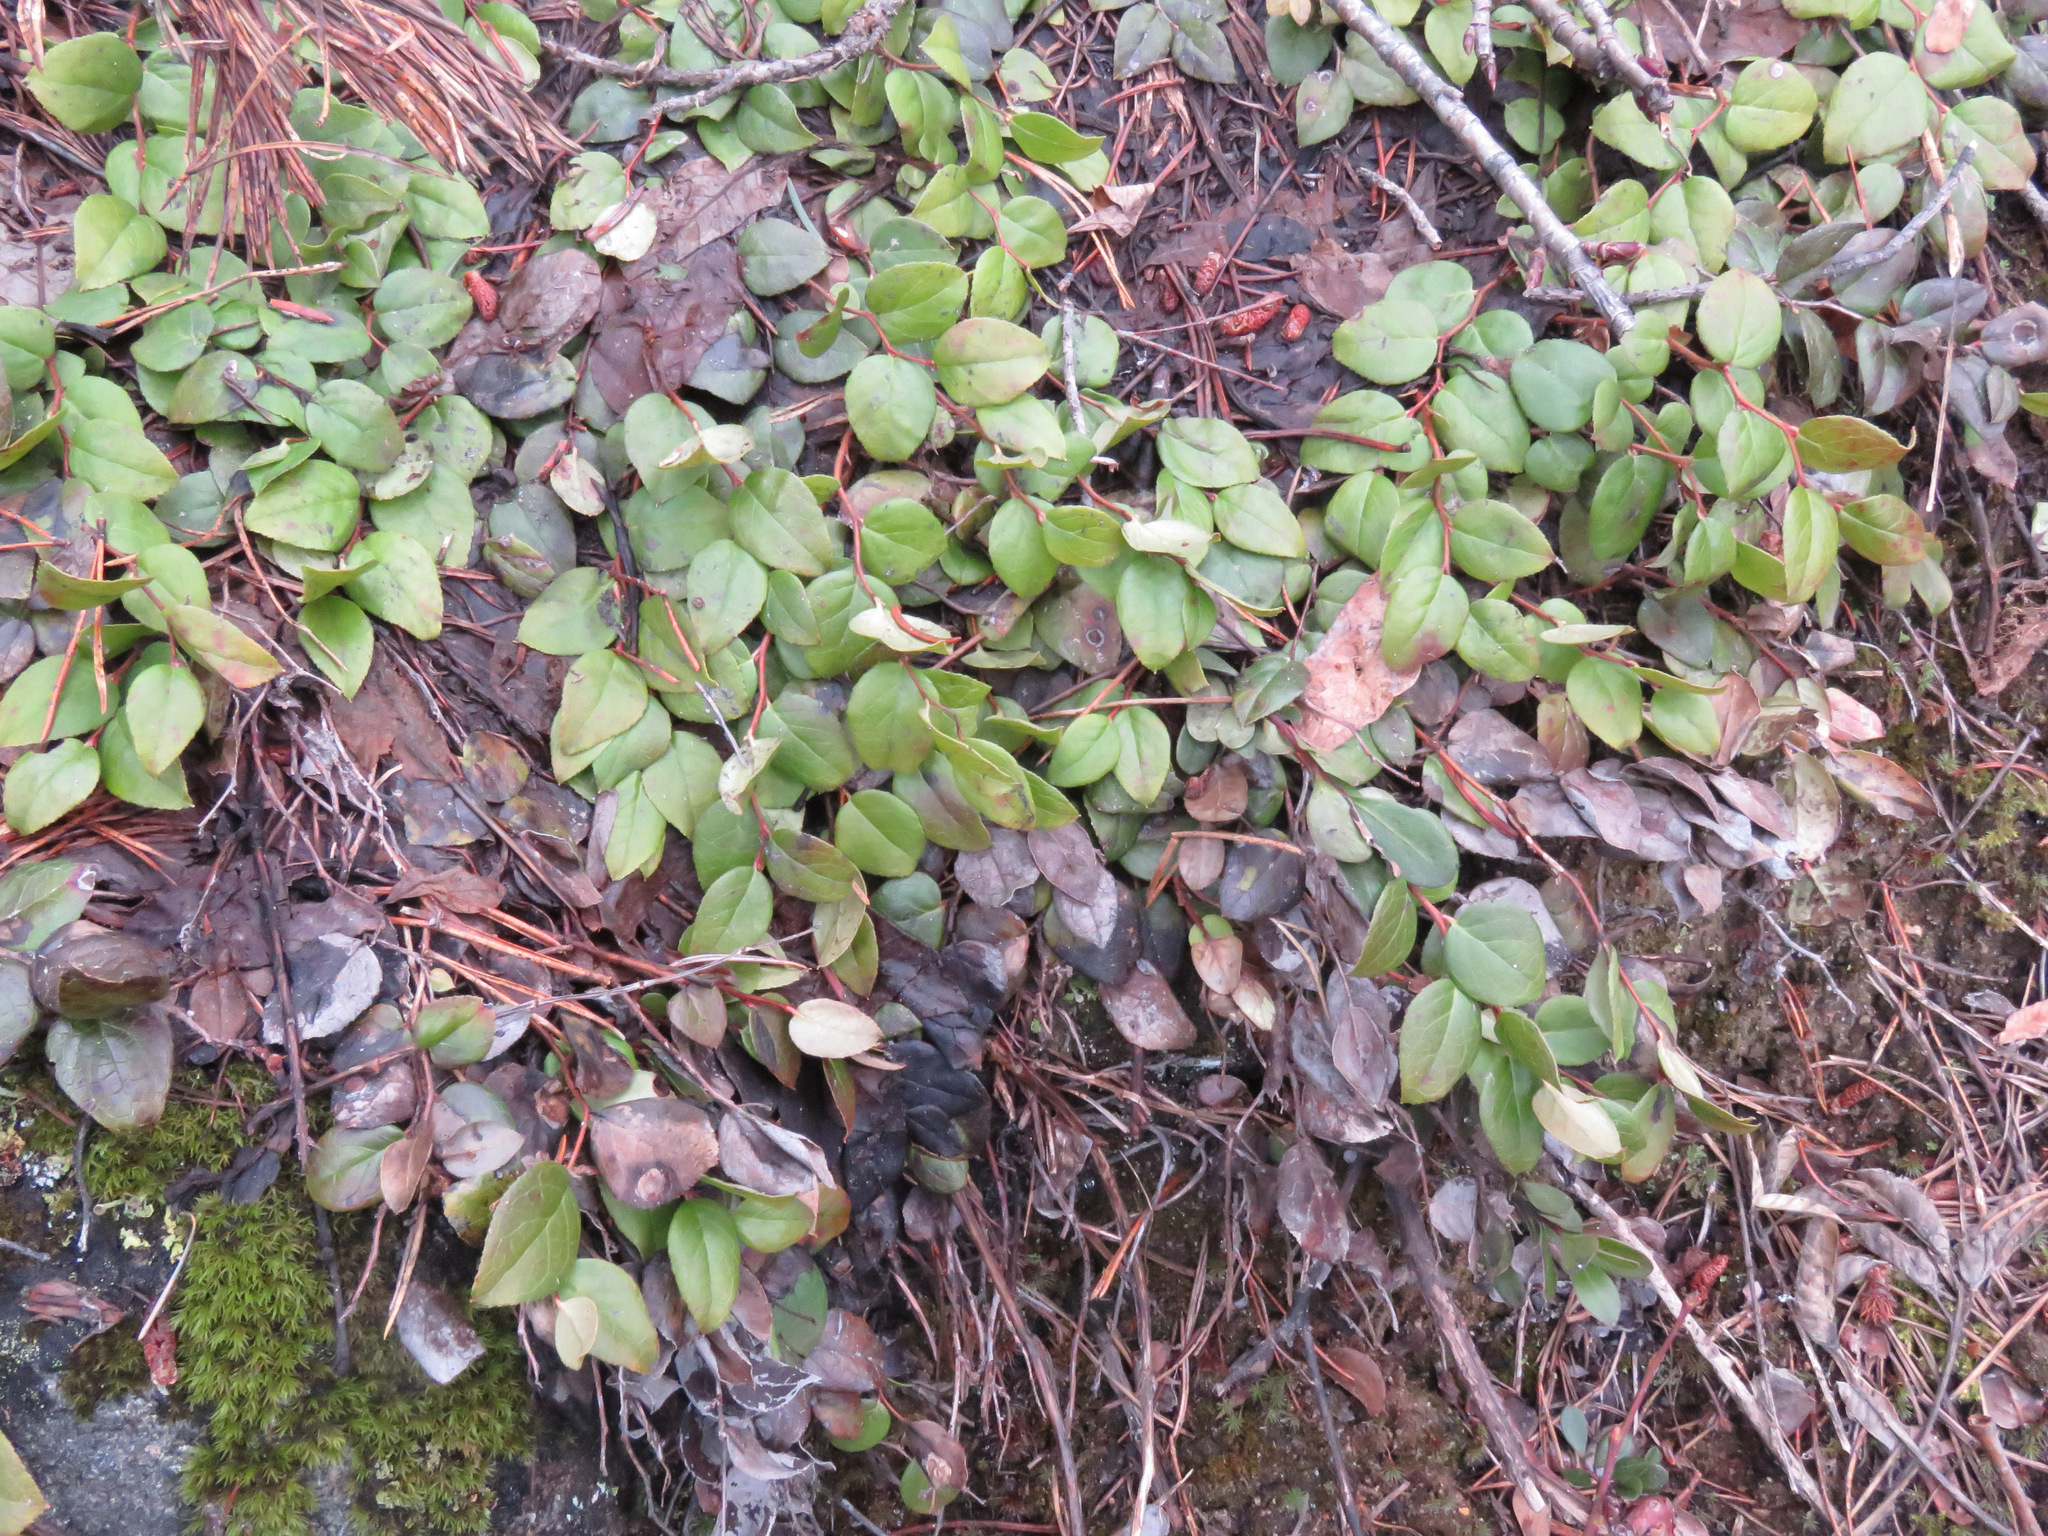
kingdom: Plantae
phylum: Tracheophyta
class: Magnoliopsida
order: Ericales
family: Ericaceae
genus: Gaultheria
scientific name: Gaultheria shallon
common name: Shallon
